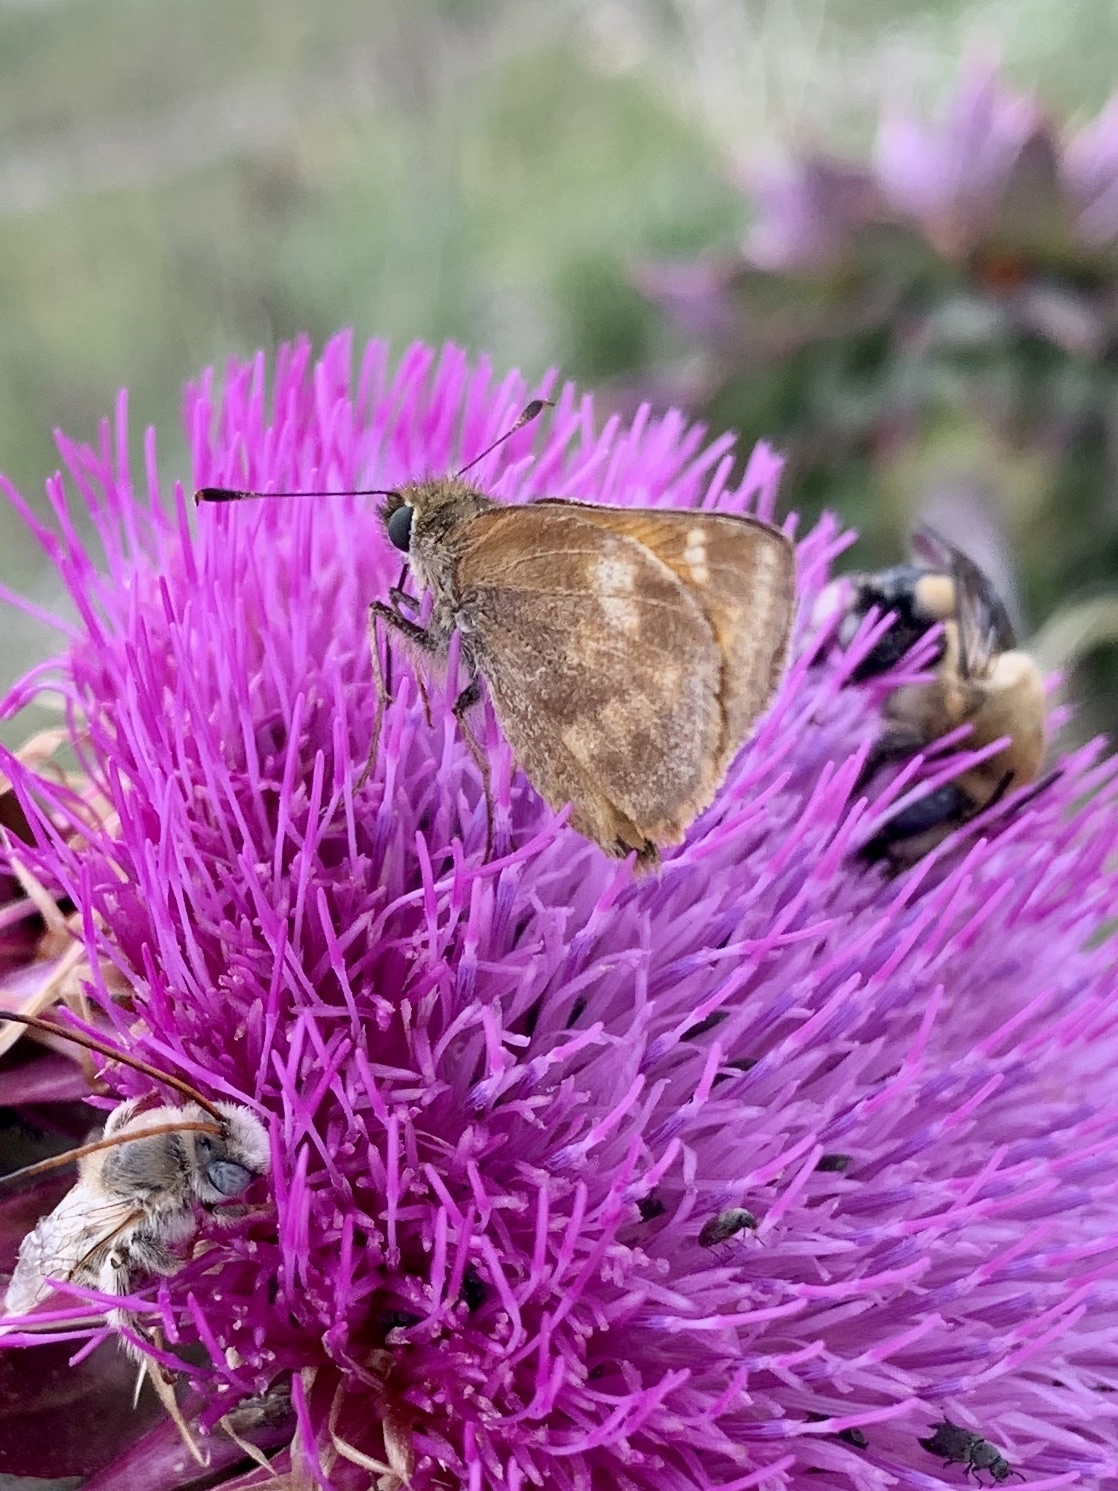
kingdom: Animalia
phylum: Arthropoda
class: Insecta
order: Lepidoptera
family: Hesperiidae
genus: Lon
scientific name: Lon taxiles
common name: Taxiles skipper
